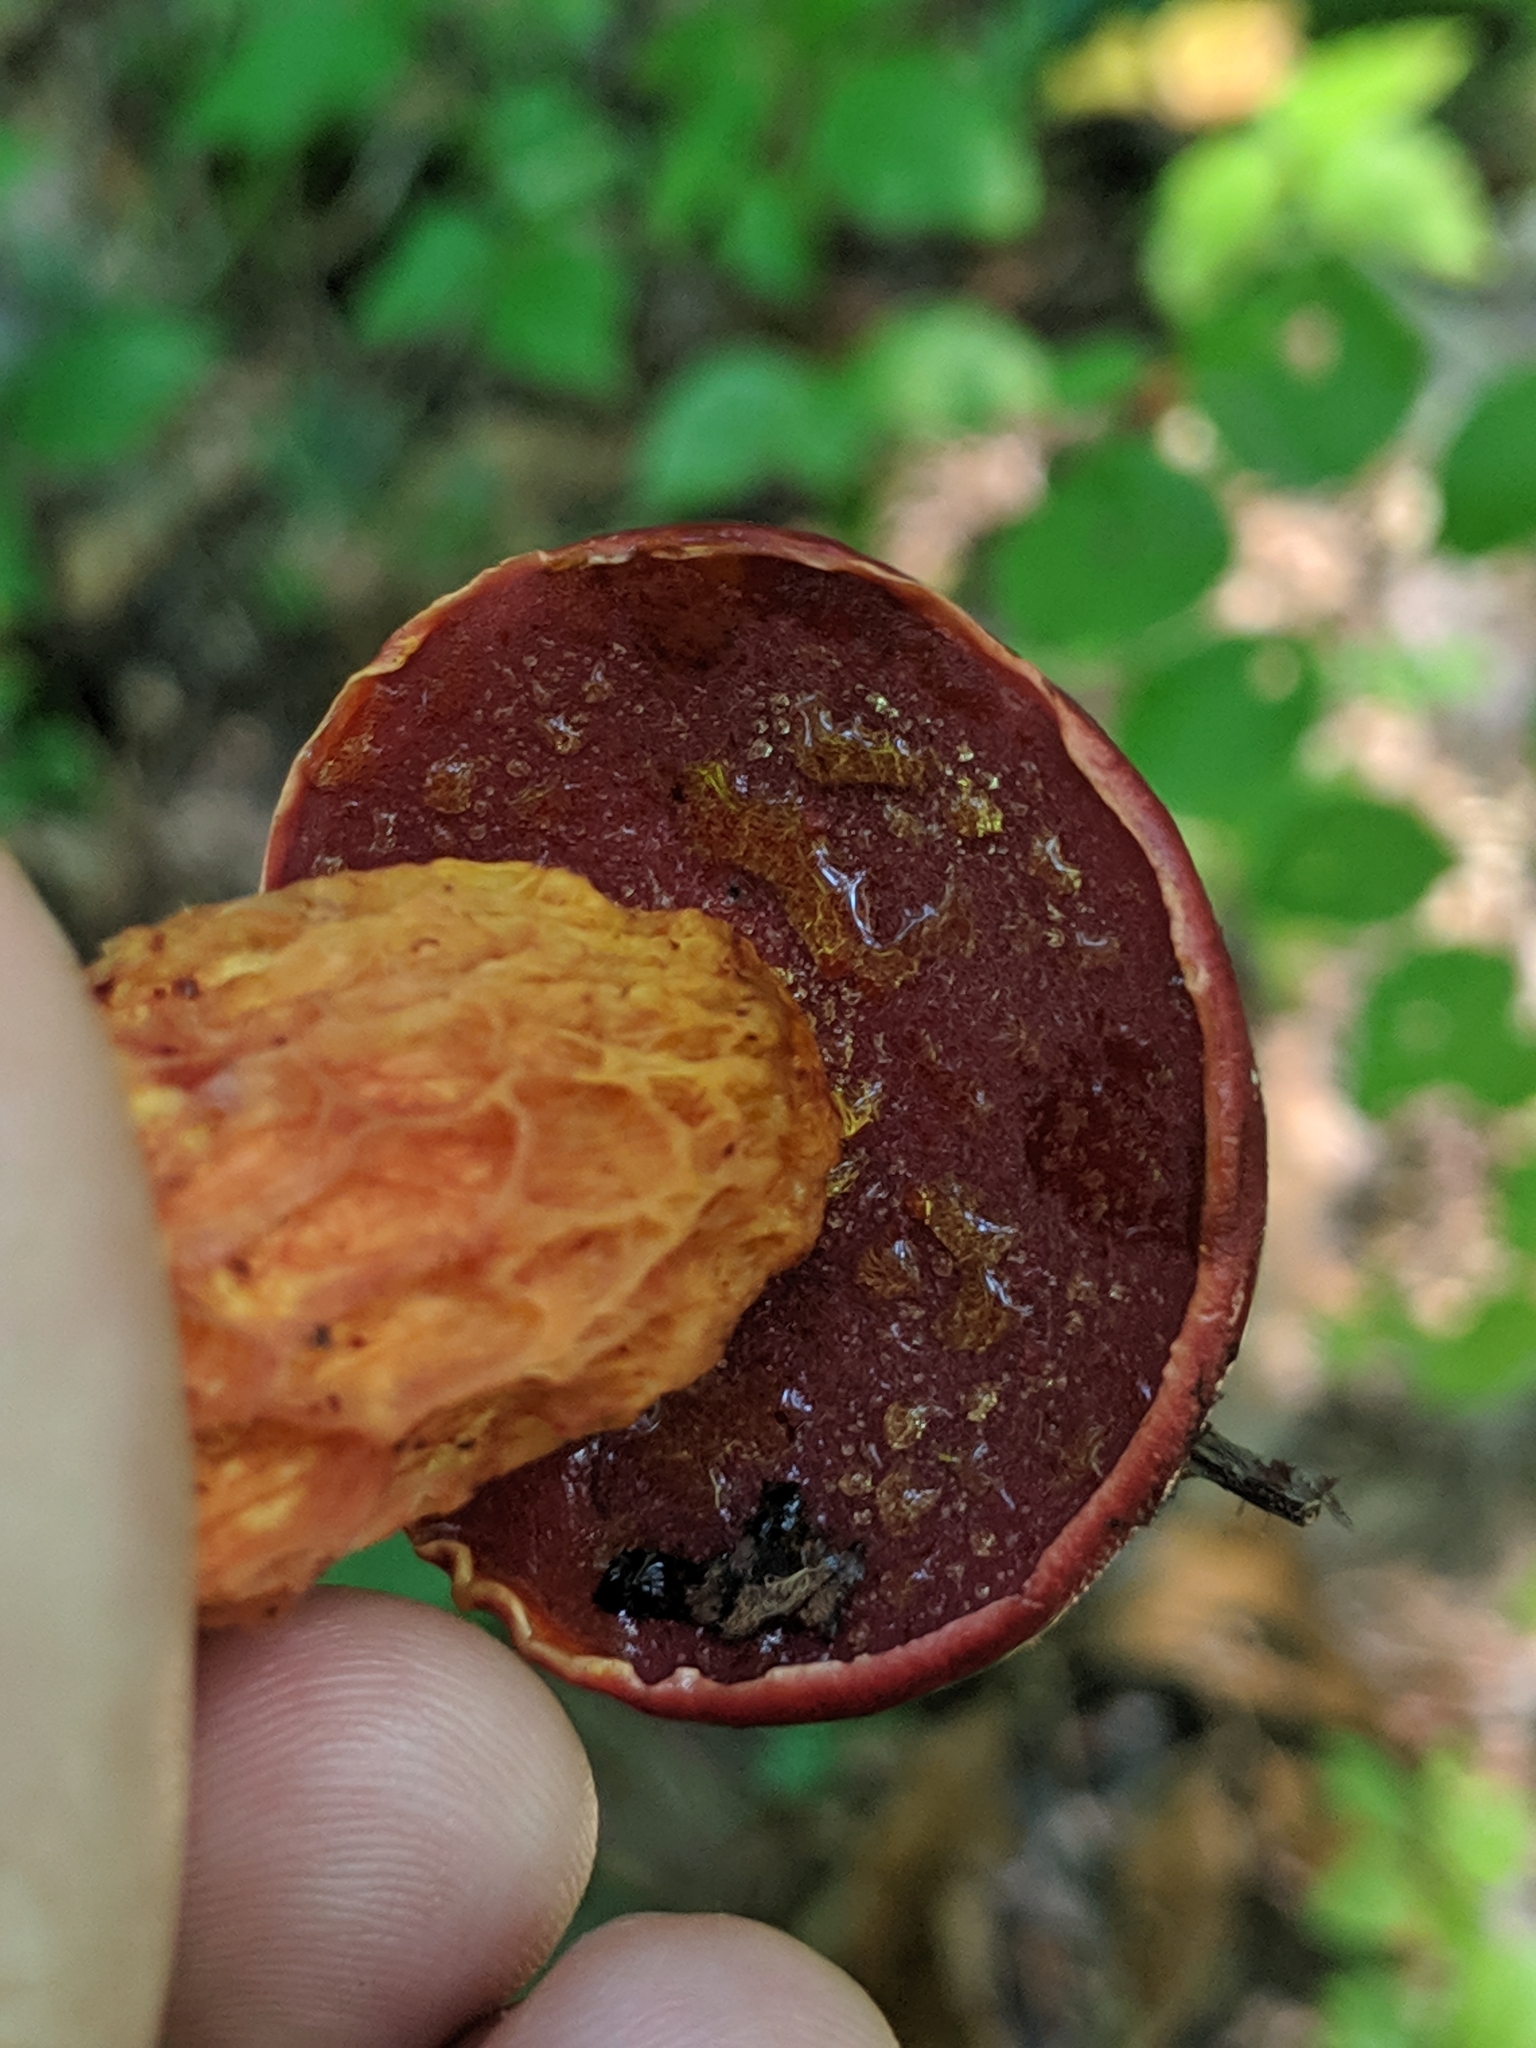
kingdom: Fungi
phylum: Basidiomycota
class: Agaricomycetes
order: Boletales
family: Boletaceae
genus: Butyriboletus
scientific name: Butyriboletus frostii
